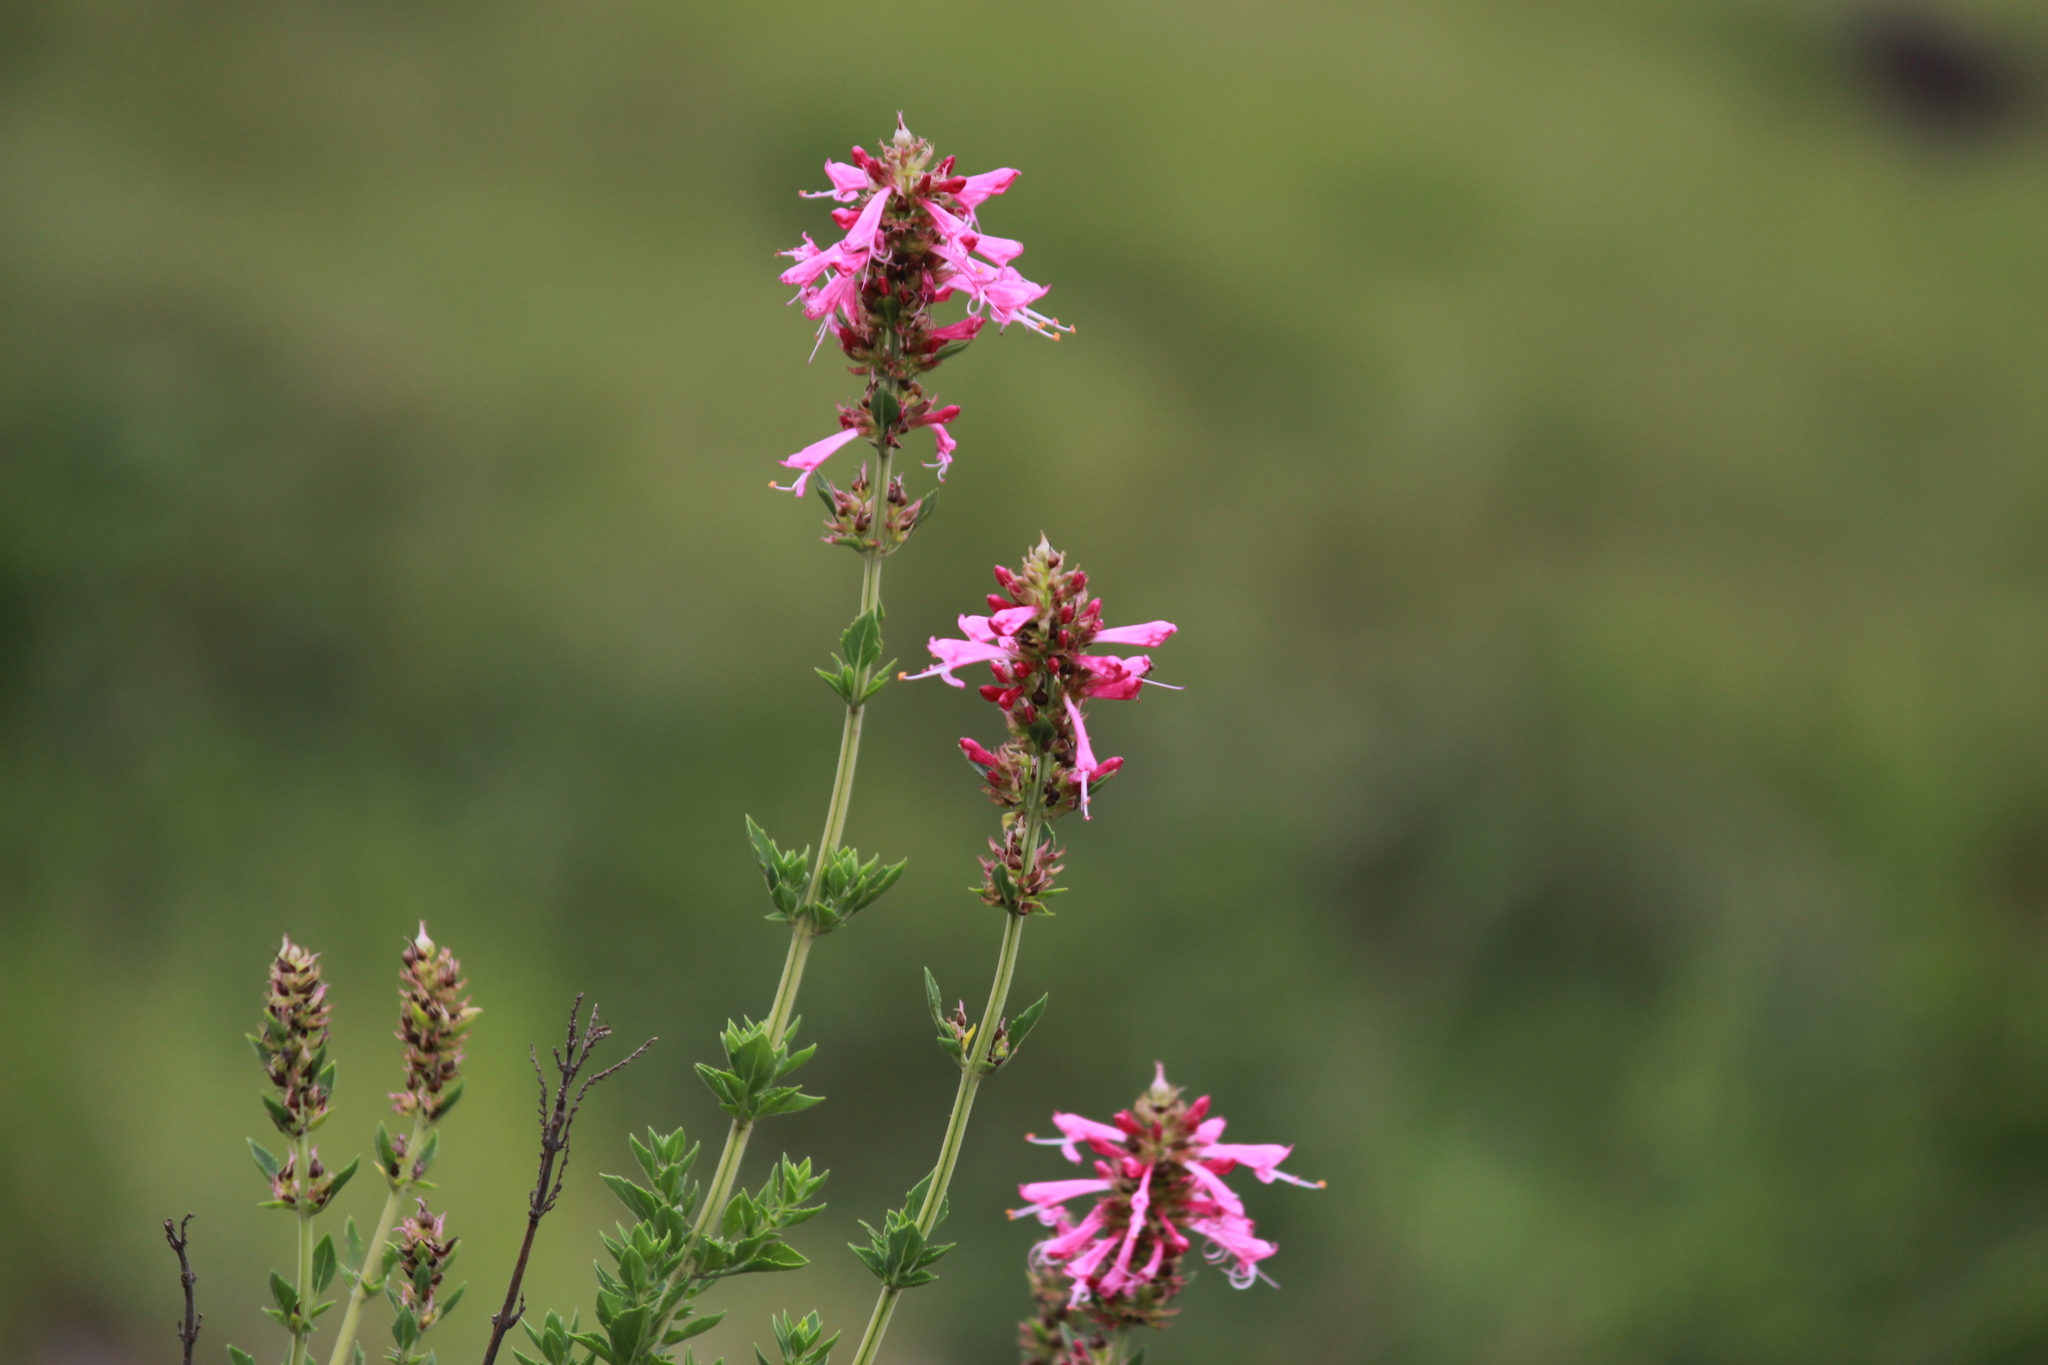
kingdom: Plantae
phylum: Tracheophyta
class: Magnoliopsida
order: Lamiales
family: Lamiaceae
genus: Syncolostemon
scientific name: Syncolostemon densiflorus
